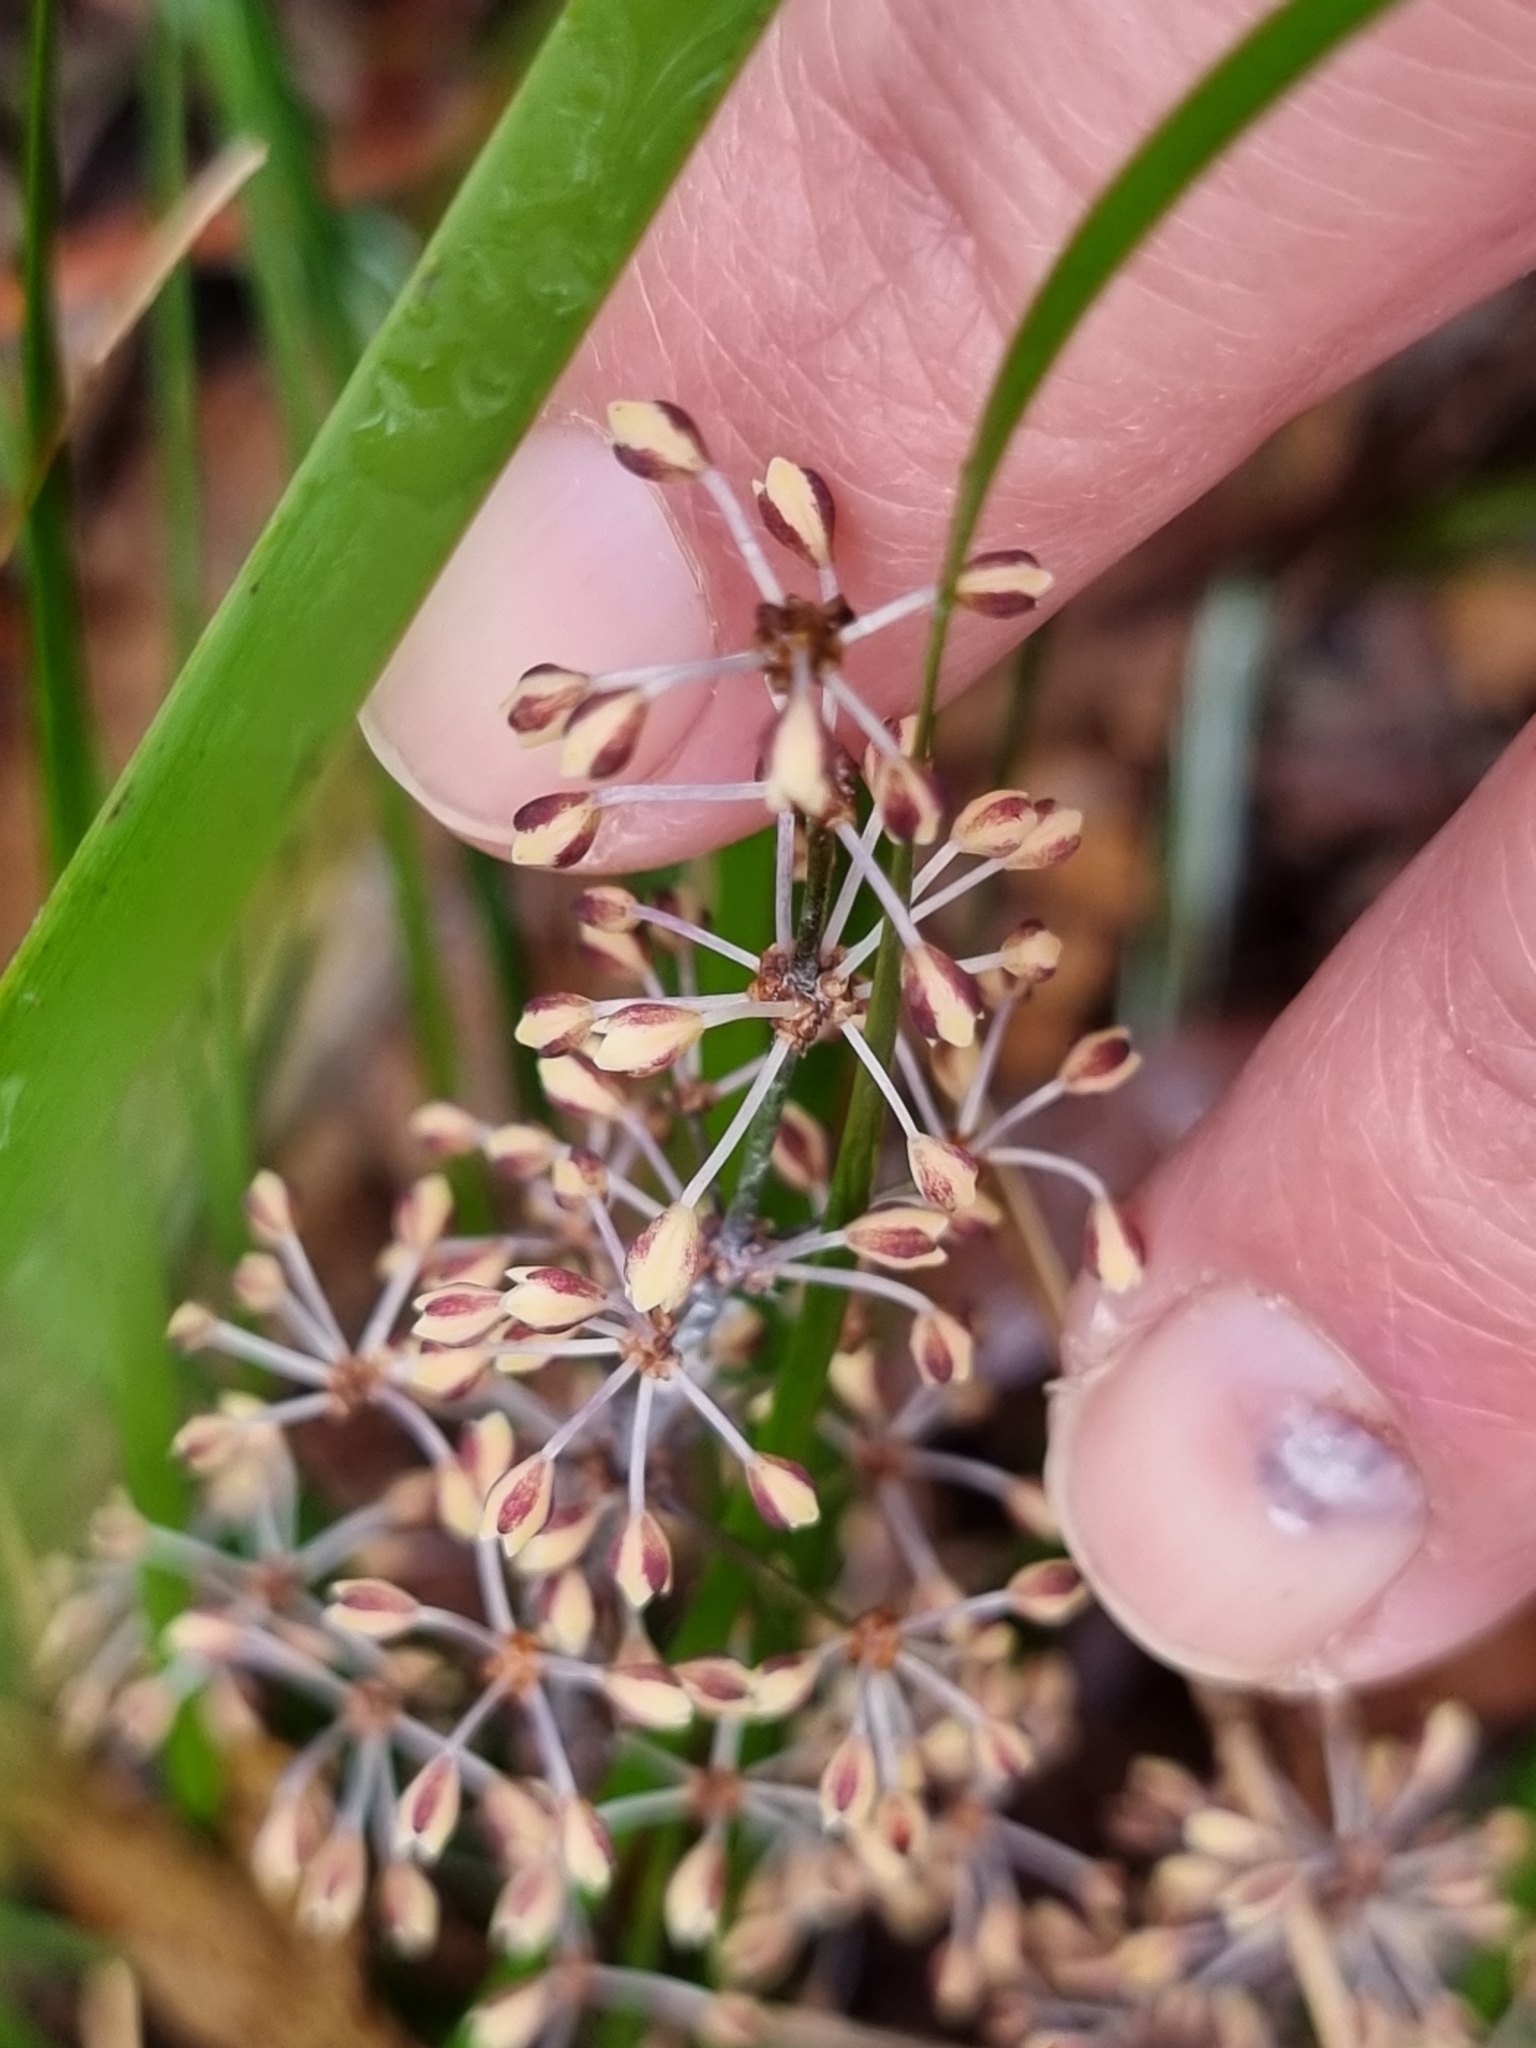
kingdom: Plantae
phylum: Tracheophyta
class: Liliopsida
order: Asparagales
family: Asparagaceae
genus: Lomandra
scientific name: Lomandra multiflora
